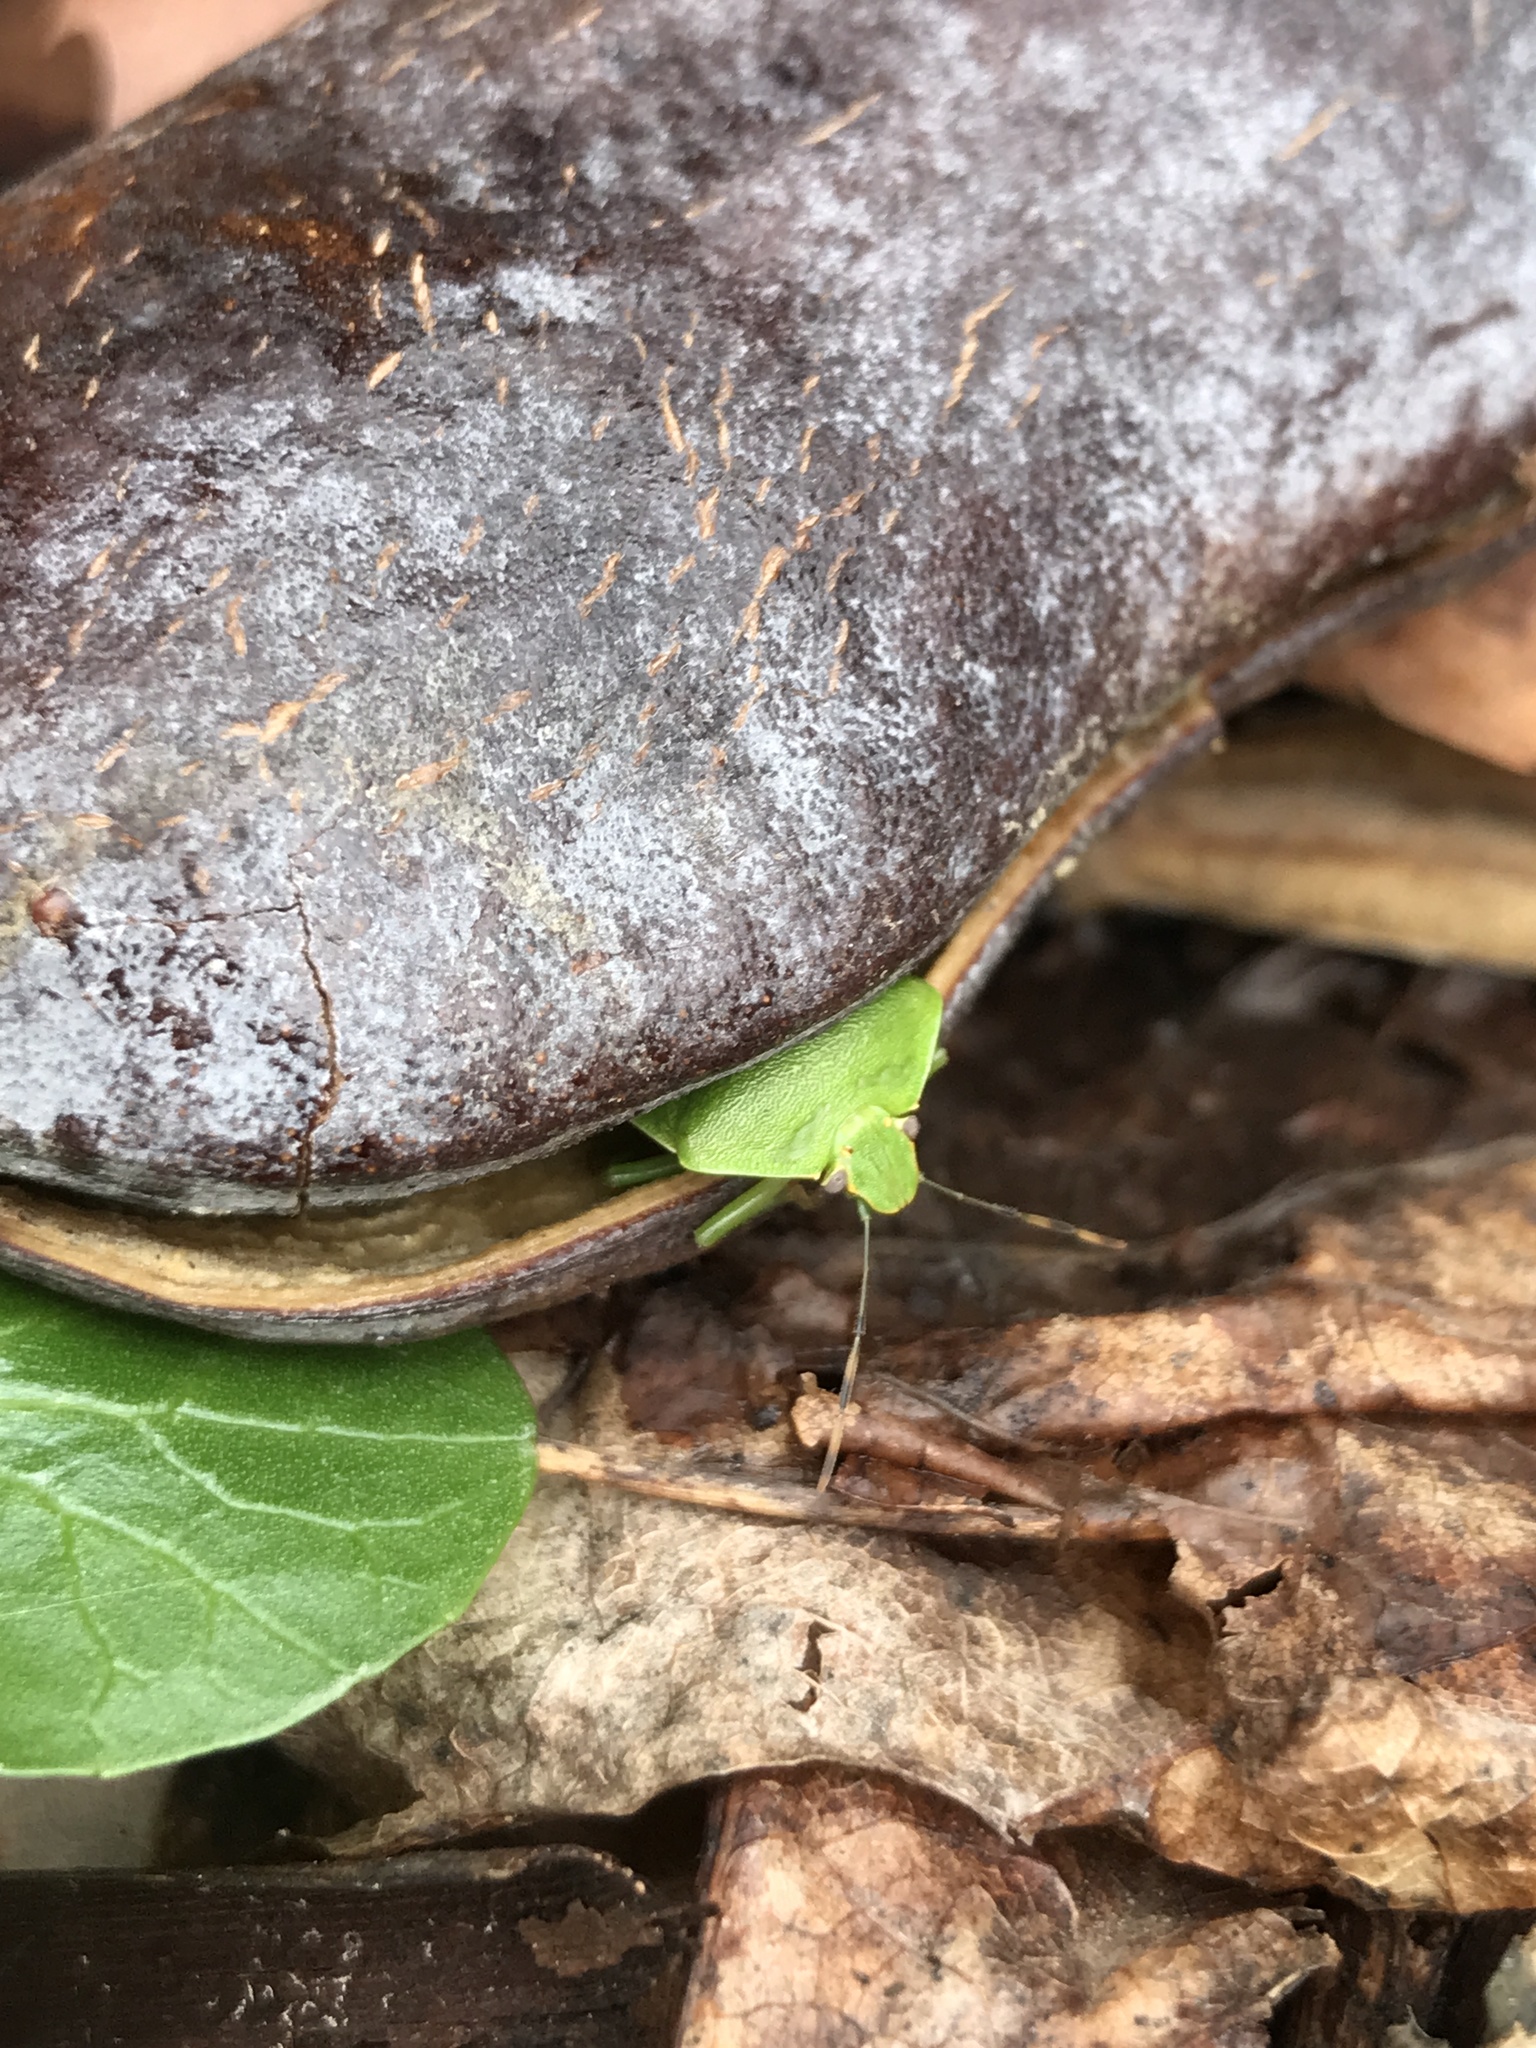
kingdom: Animalia
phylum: Arthropoda
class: Insecta
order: Hemiptera
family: Pentatomidae
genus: Chinavia
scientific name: Chinavia hilaris
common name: Green stink bug
